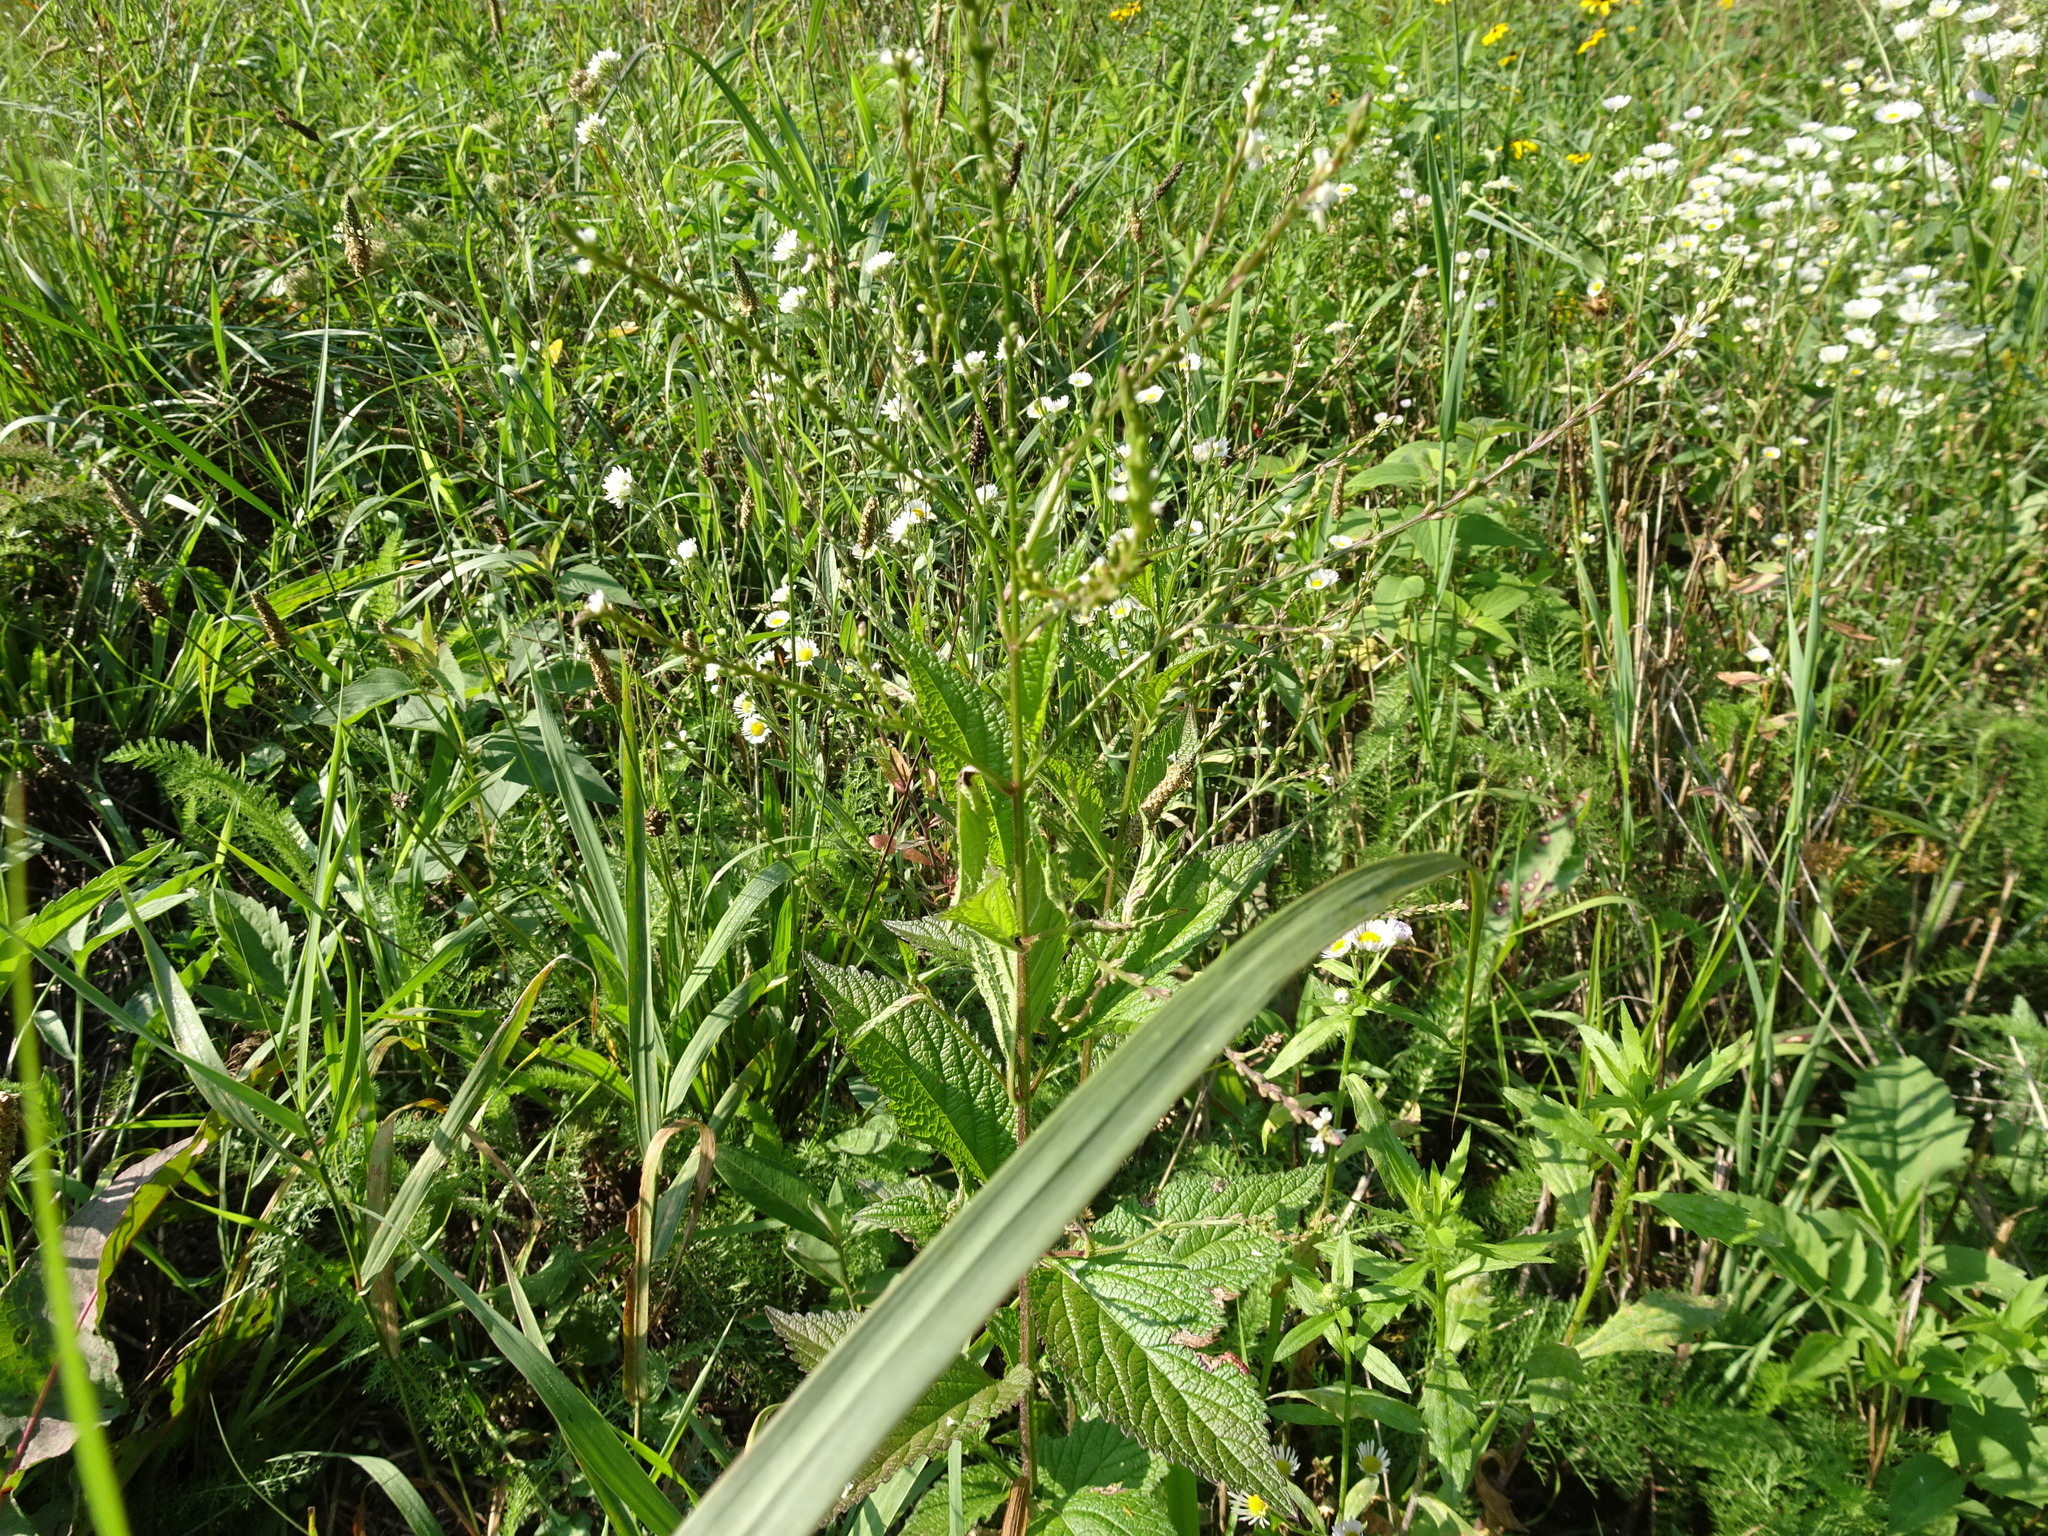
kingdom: Plantae
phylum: Tracheophyta
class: Magnoliopsida
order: Lamiales
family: Verbenaceae
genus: Verbena
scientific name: Verbena urticifolia
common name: Nettle-leaved vervain
